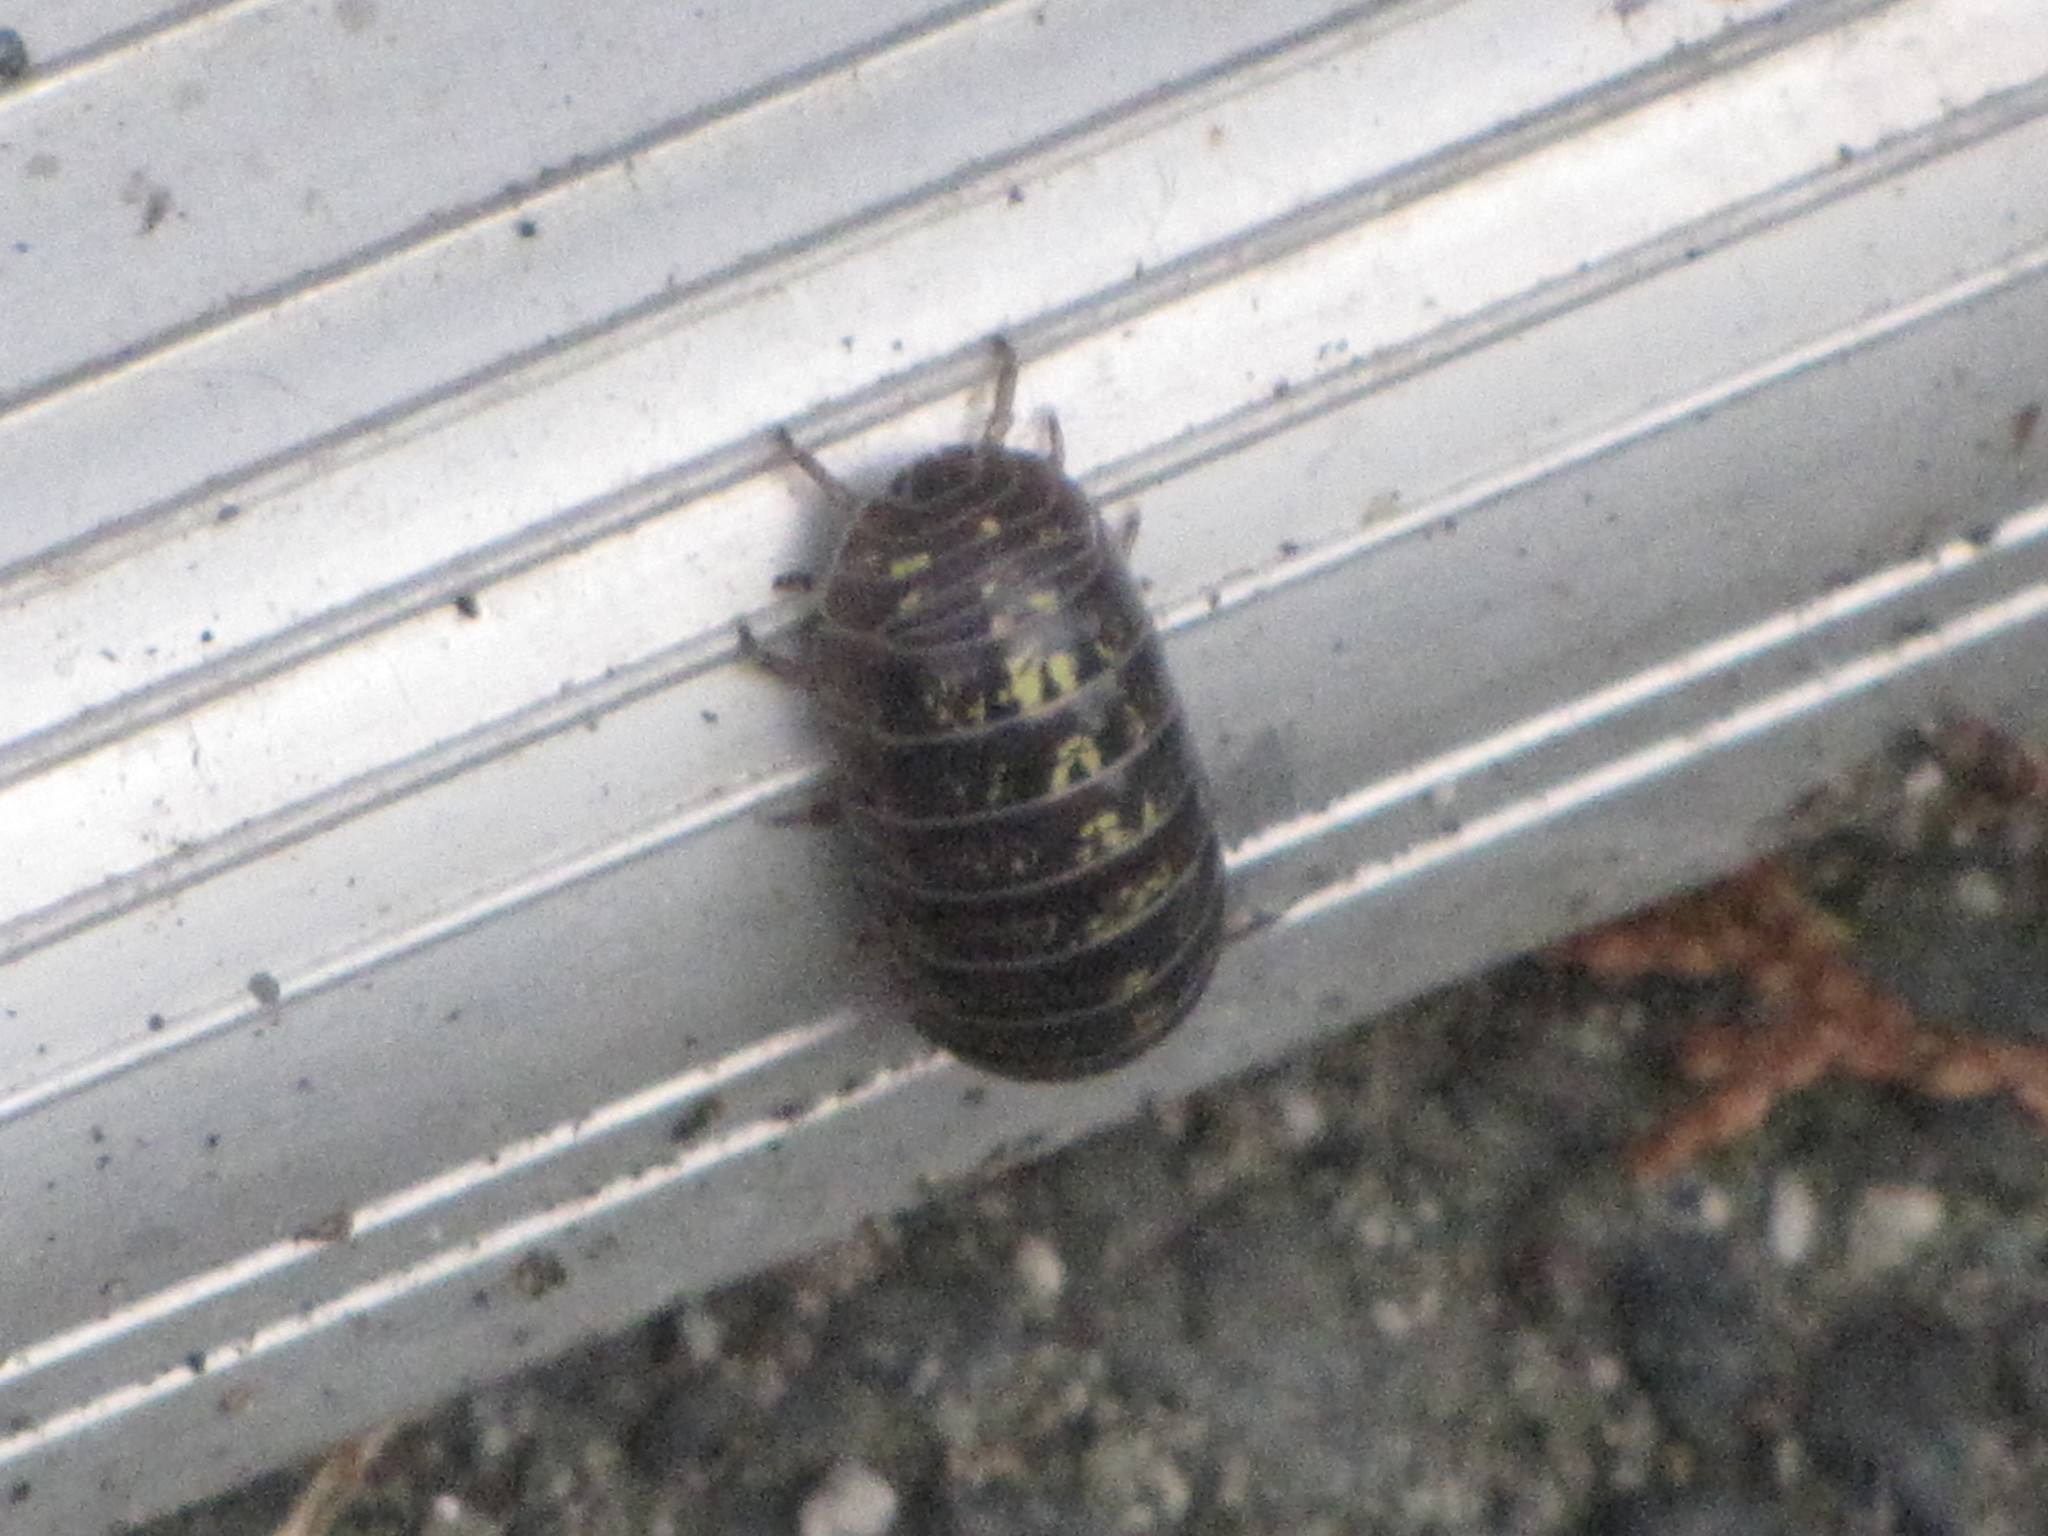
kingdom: Animalia
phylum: Arthropoda
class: Malacostraca
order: Isopoda
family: Armadillidiidae
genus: Armadillidium
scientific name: Armadillidium vulgare
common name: Common pill woodlouse
